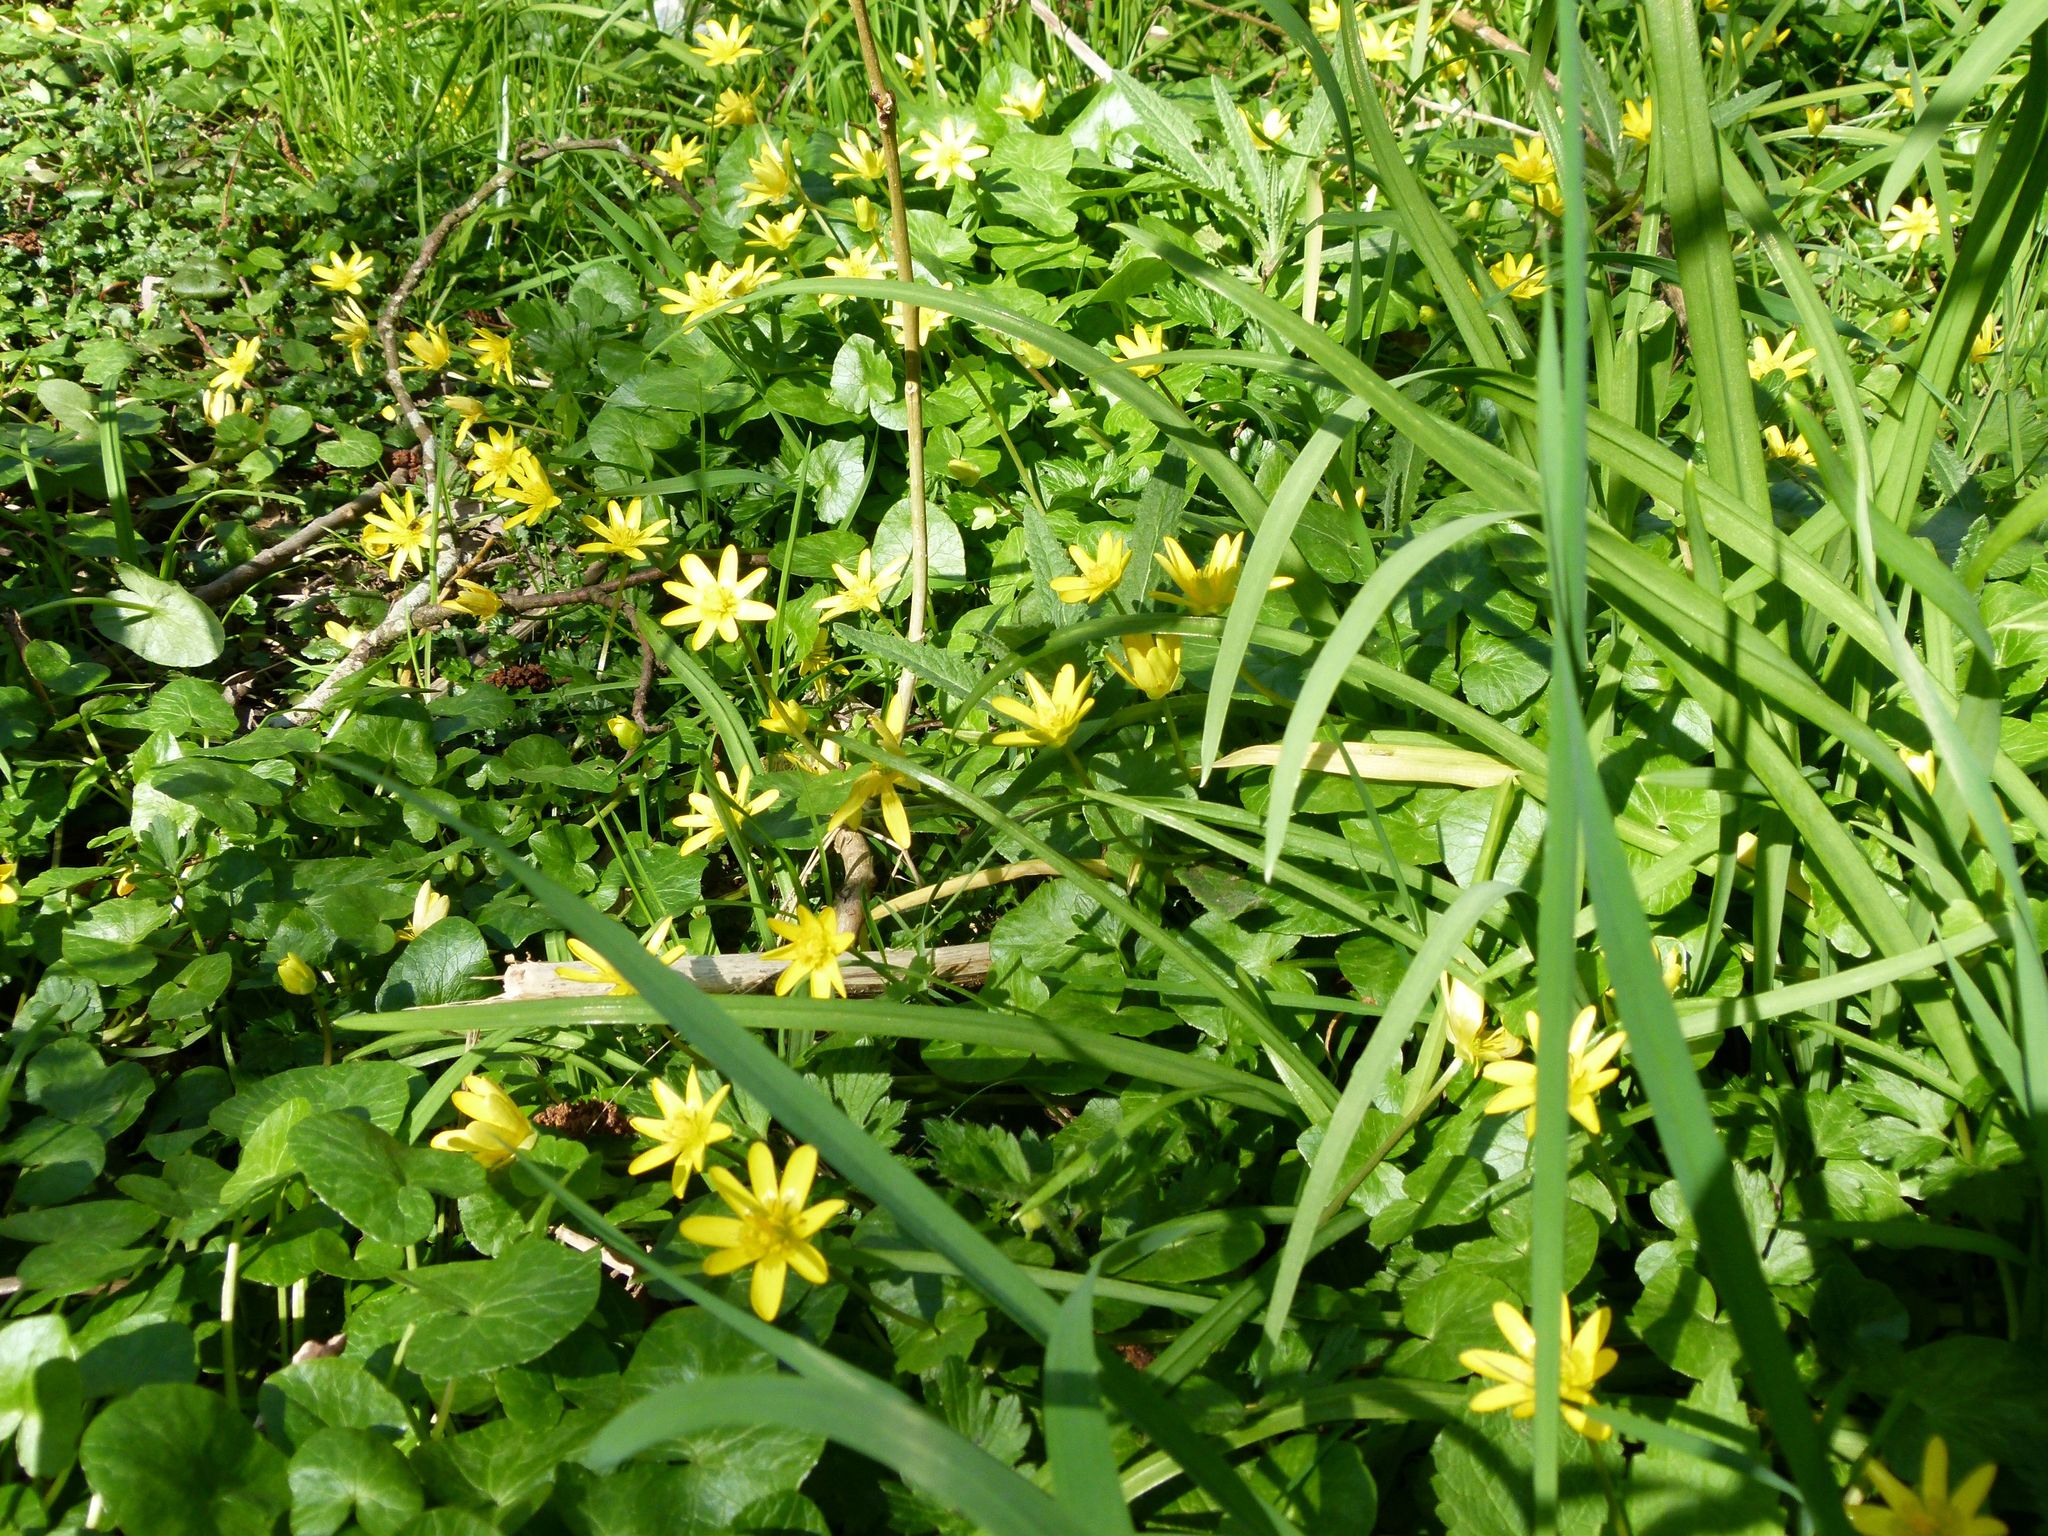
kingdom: Plantae
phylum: Tracheophyta
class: Magnoliopsida
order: Ranunculales
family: Ranunculaceae
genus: Ficaria
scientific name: Ficaria verna
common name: Lesser celandine
